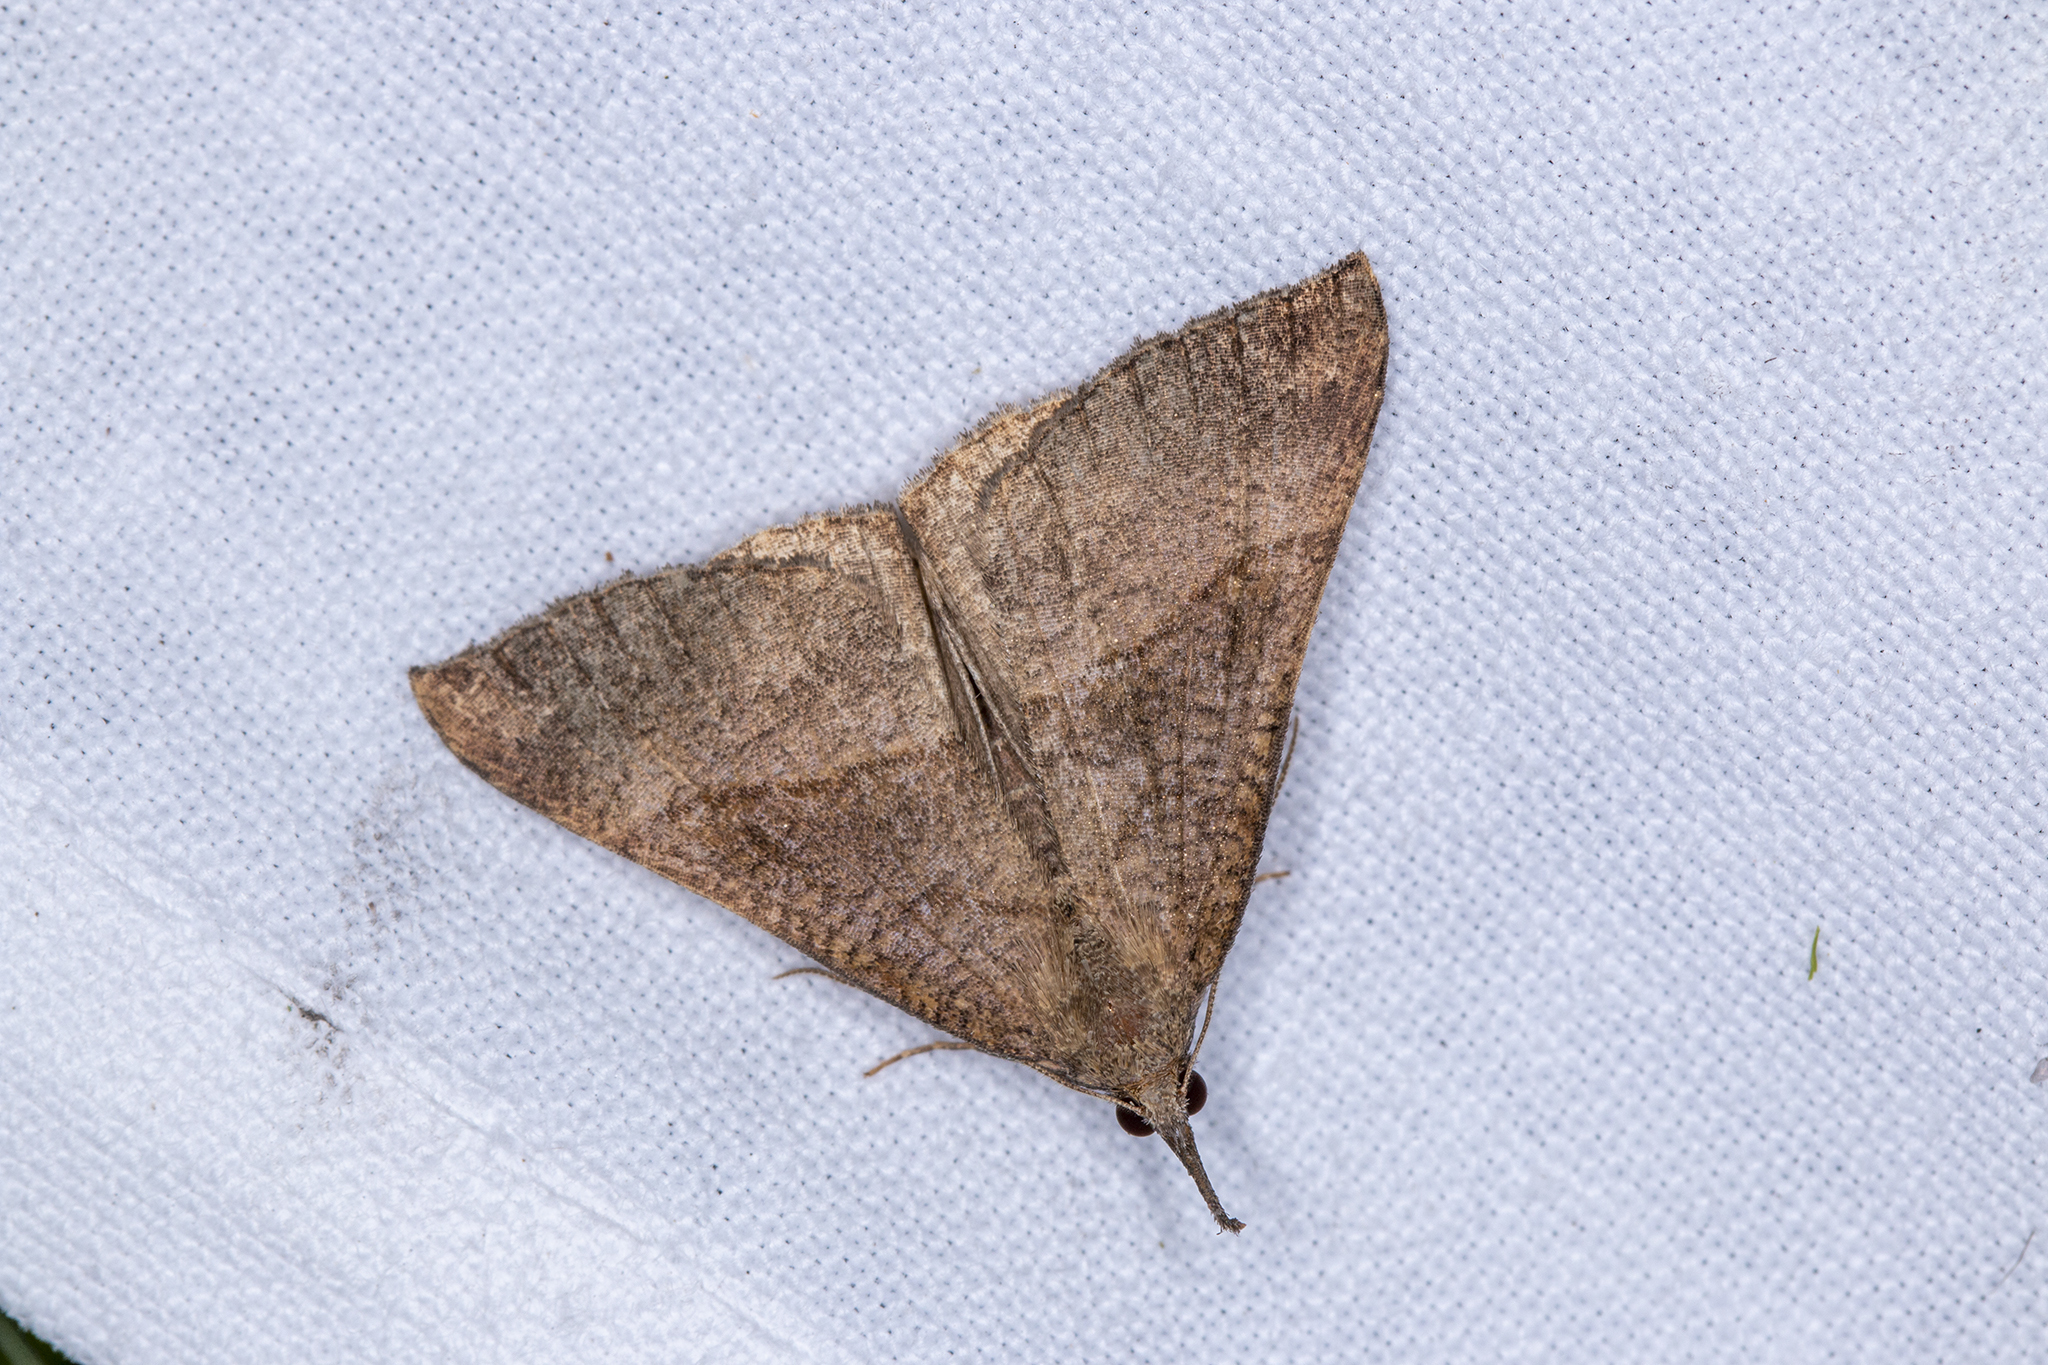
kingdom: Animalia
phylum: Arthropoda
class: Insecta
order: Lepidoptera
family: Erebidae
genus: Hypena
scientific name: Hypena proboscidalis
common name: Snout
